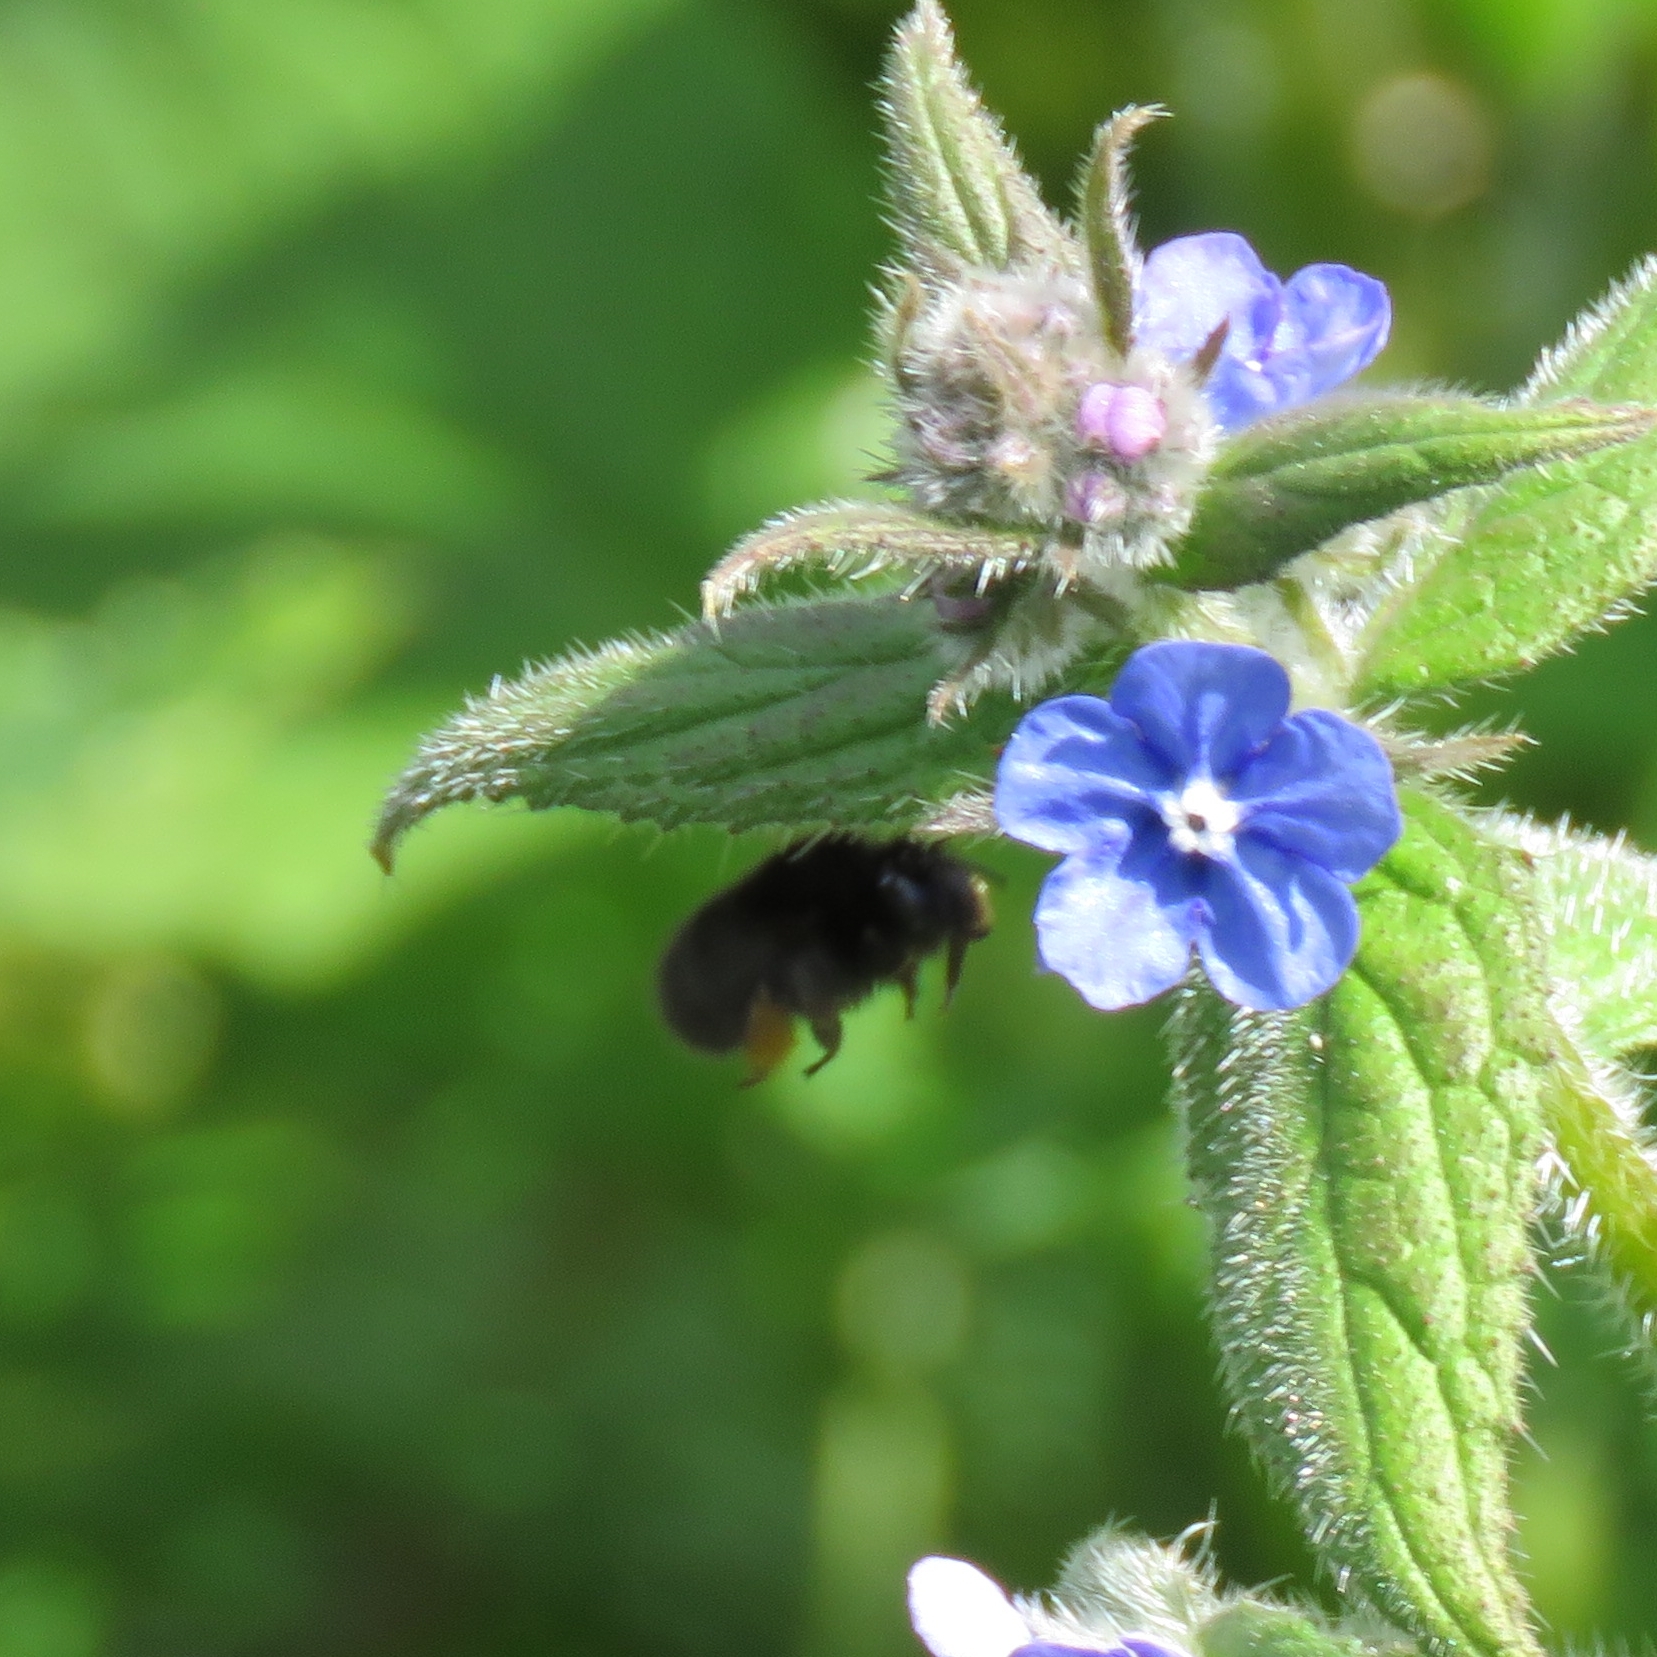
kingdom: Animalia
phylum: Arthropoda
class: Insecta
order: Hymenoptera
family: Apidae
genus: Anthophora
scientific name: Anthophora plumipes
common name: Hairy-footed flower bee
